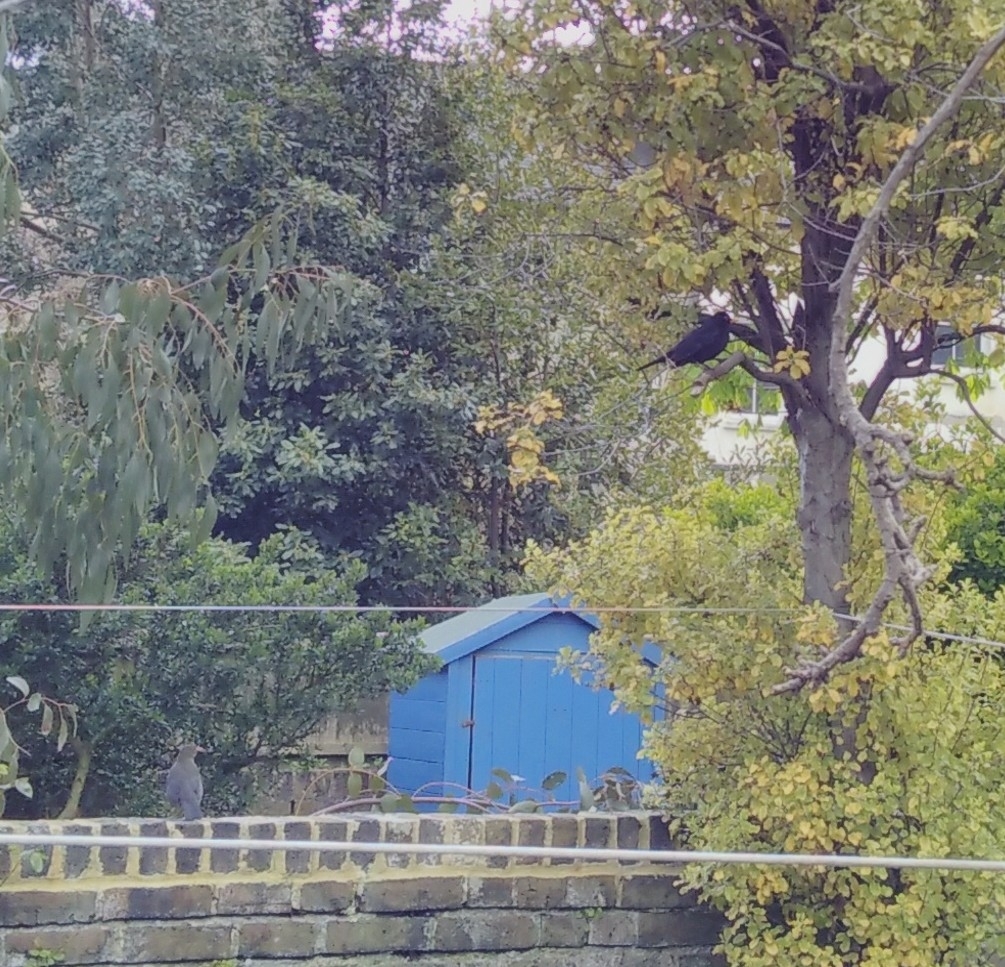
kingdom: Animalia
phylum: Chordata
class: Aves
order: Passeriformes
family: Turdidae
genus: Turdus
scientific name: Turdus merula
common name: Common blackbird
